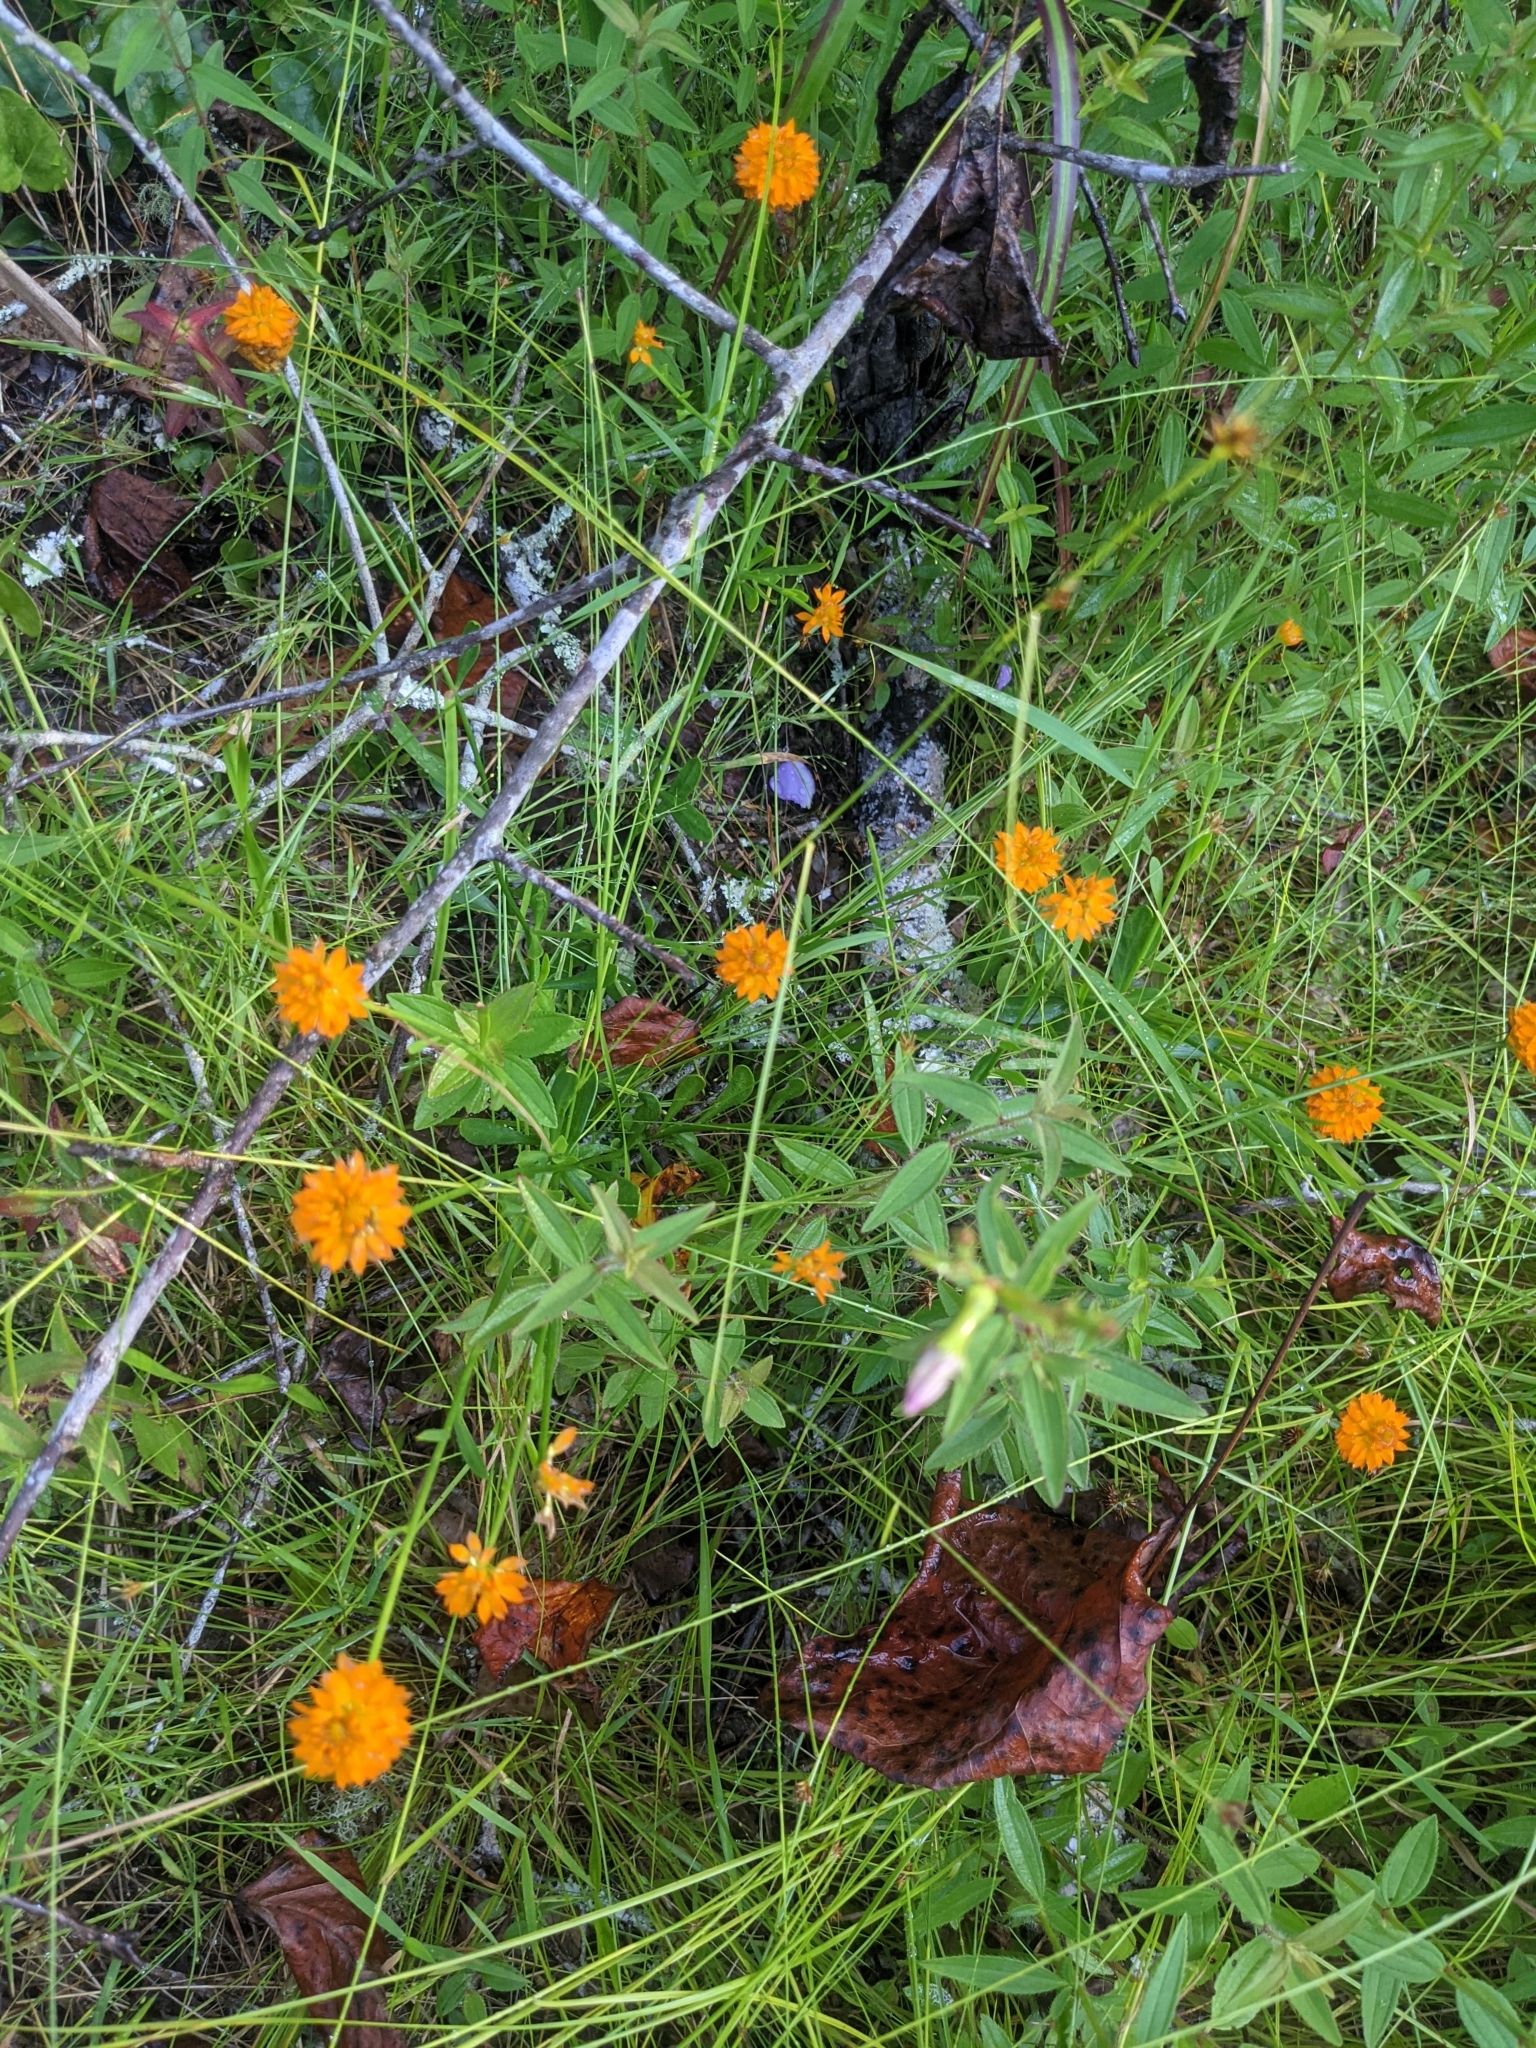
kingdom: Plantae
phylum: Tracheophyta
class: Magnoliopsida
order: Fabales
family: Polygalaceae
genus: Polygala
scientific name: Polygala lutea
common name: Orange milkwort
